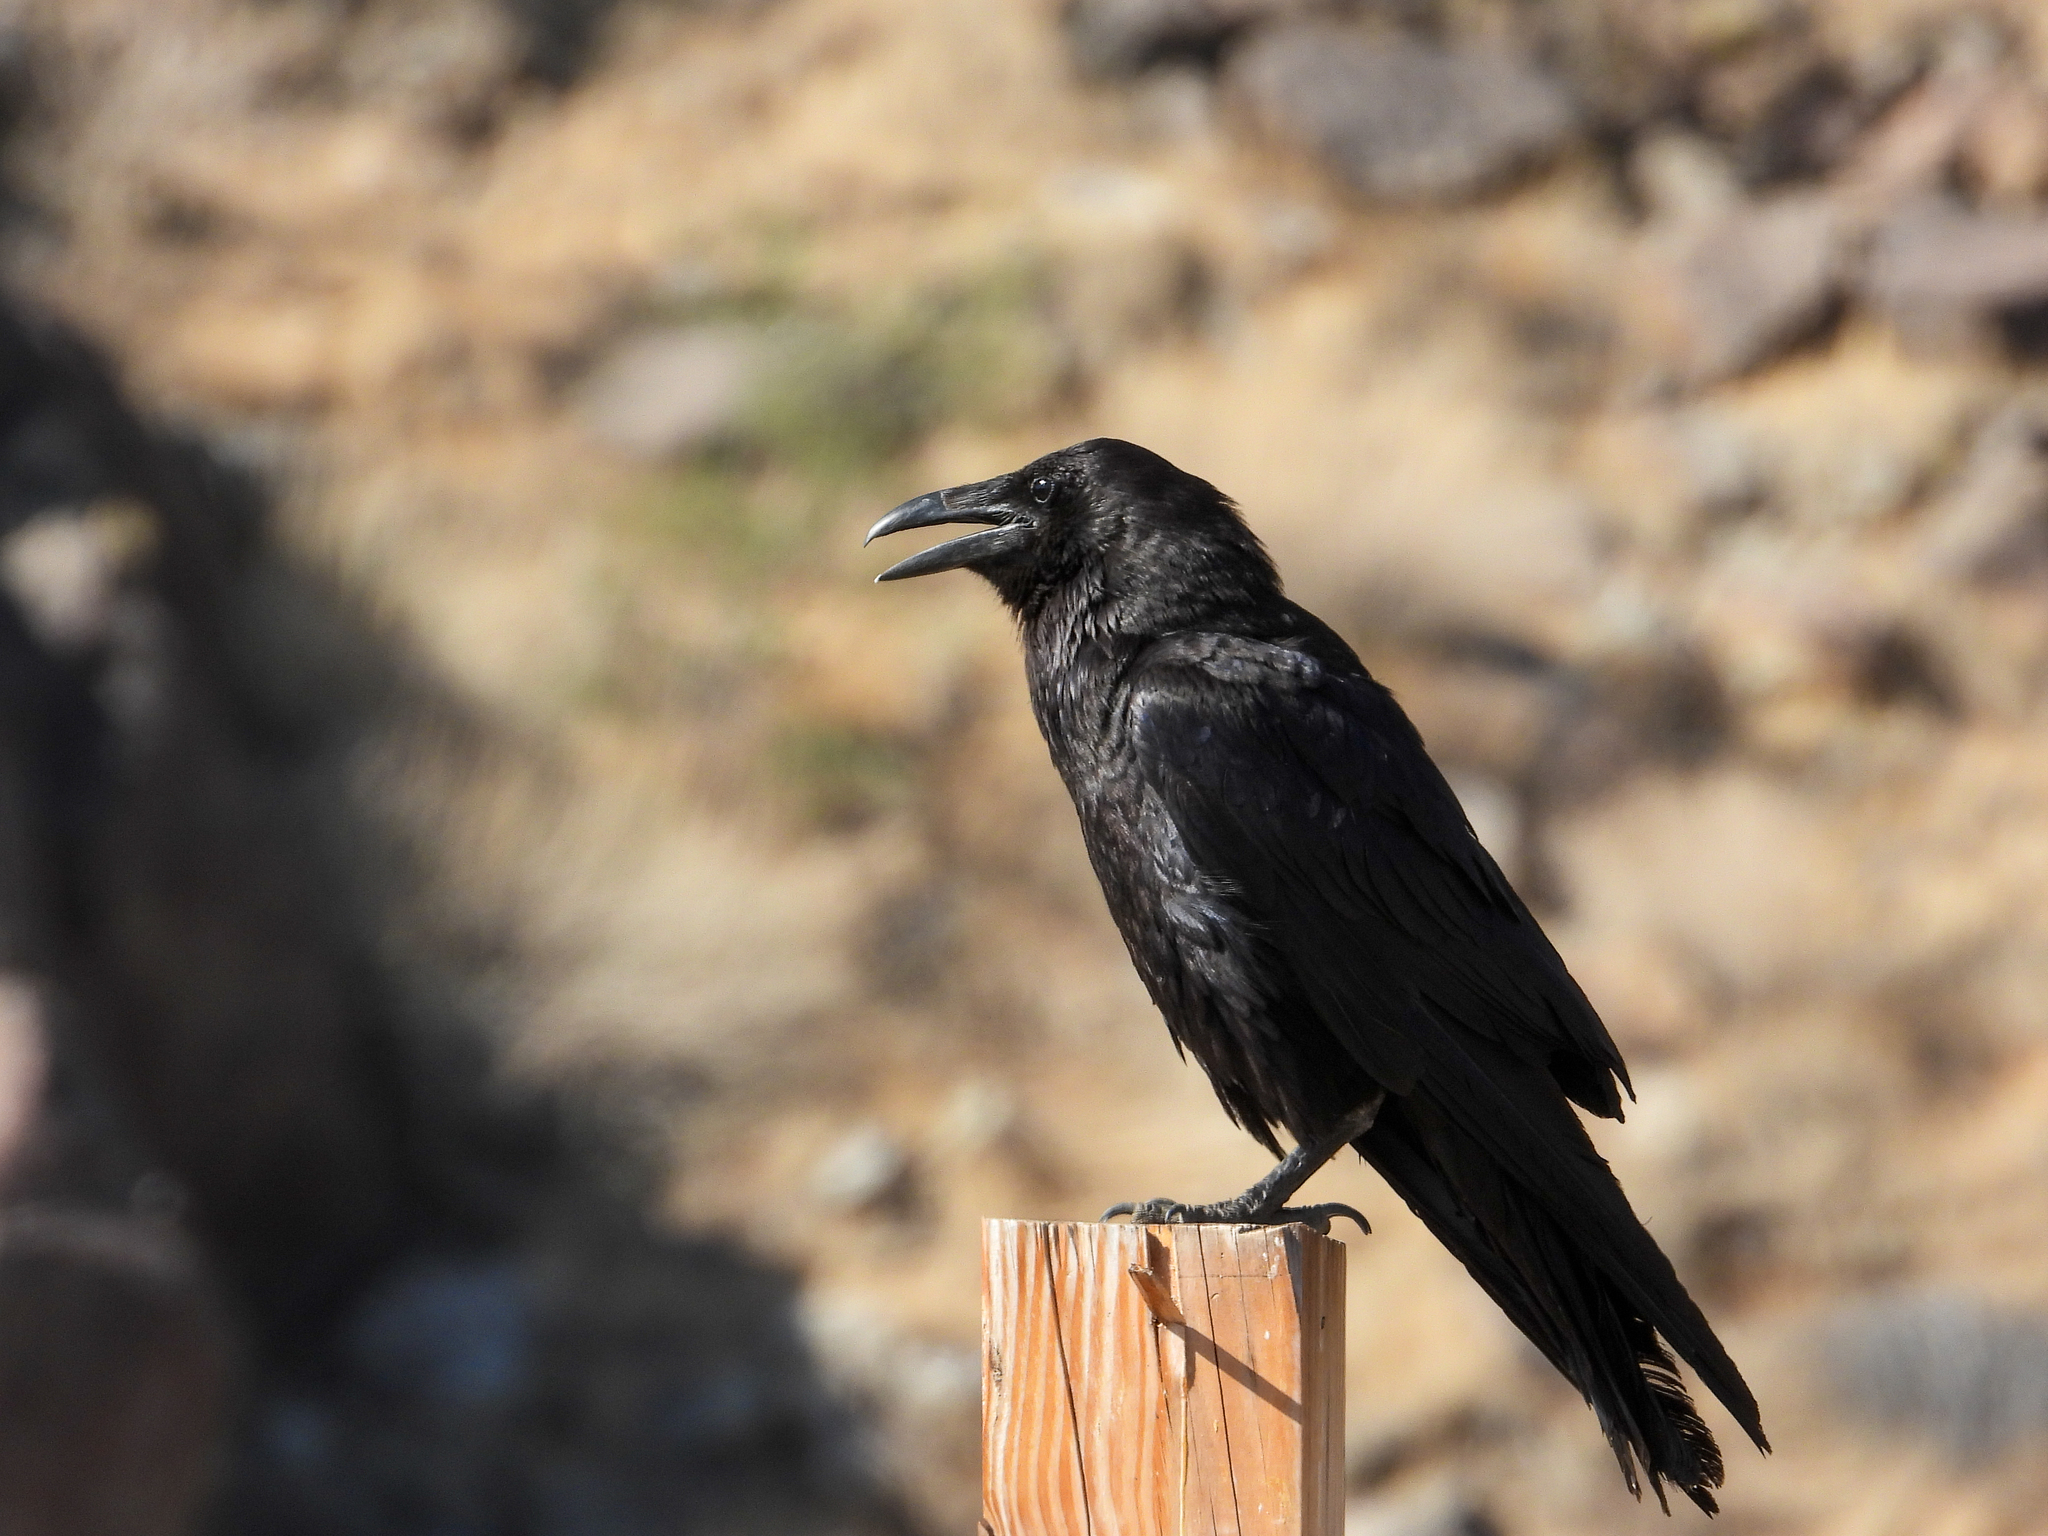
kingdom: Animalia
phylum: Chordata
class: Aves
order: Passeriformes
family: Corvidae
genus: Corvus
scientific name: Corvus corax
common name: Common raven
